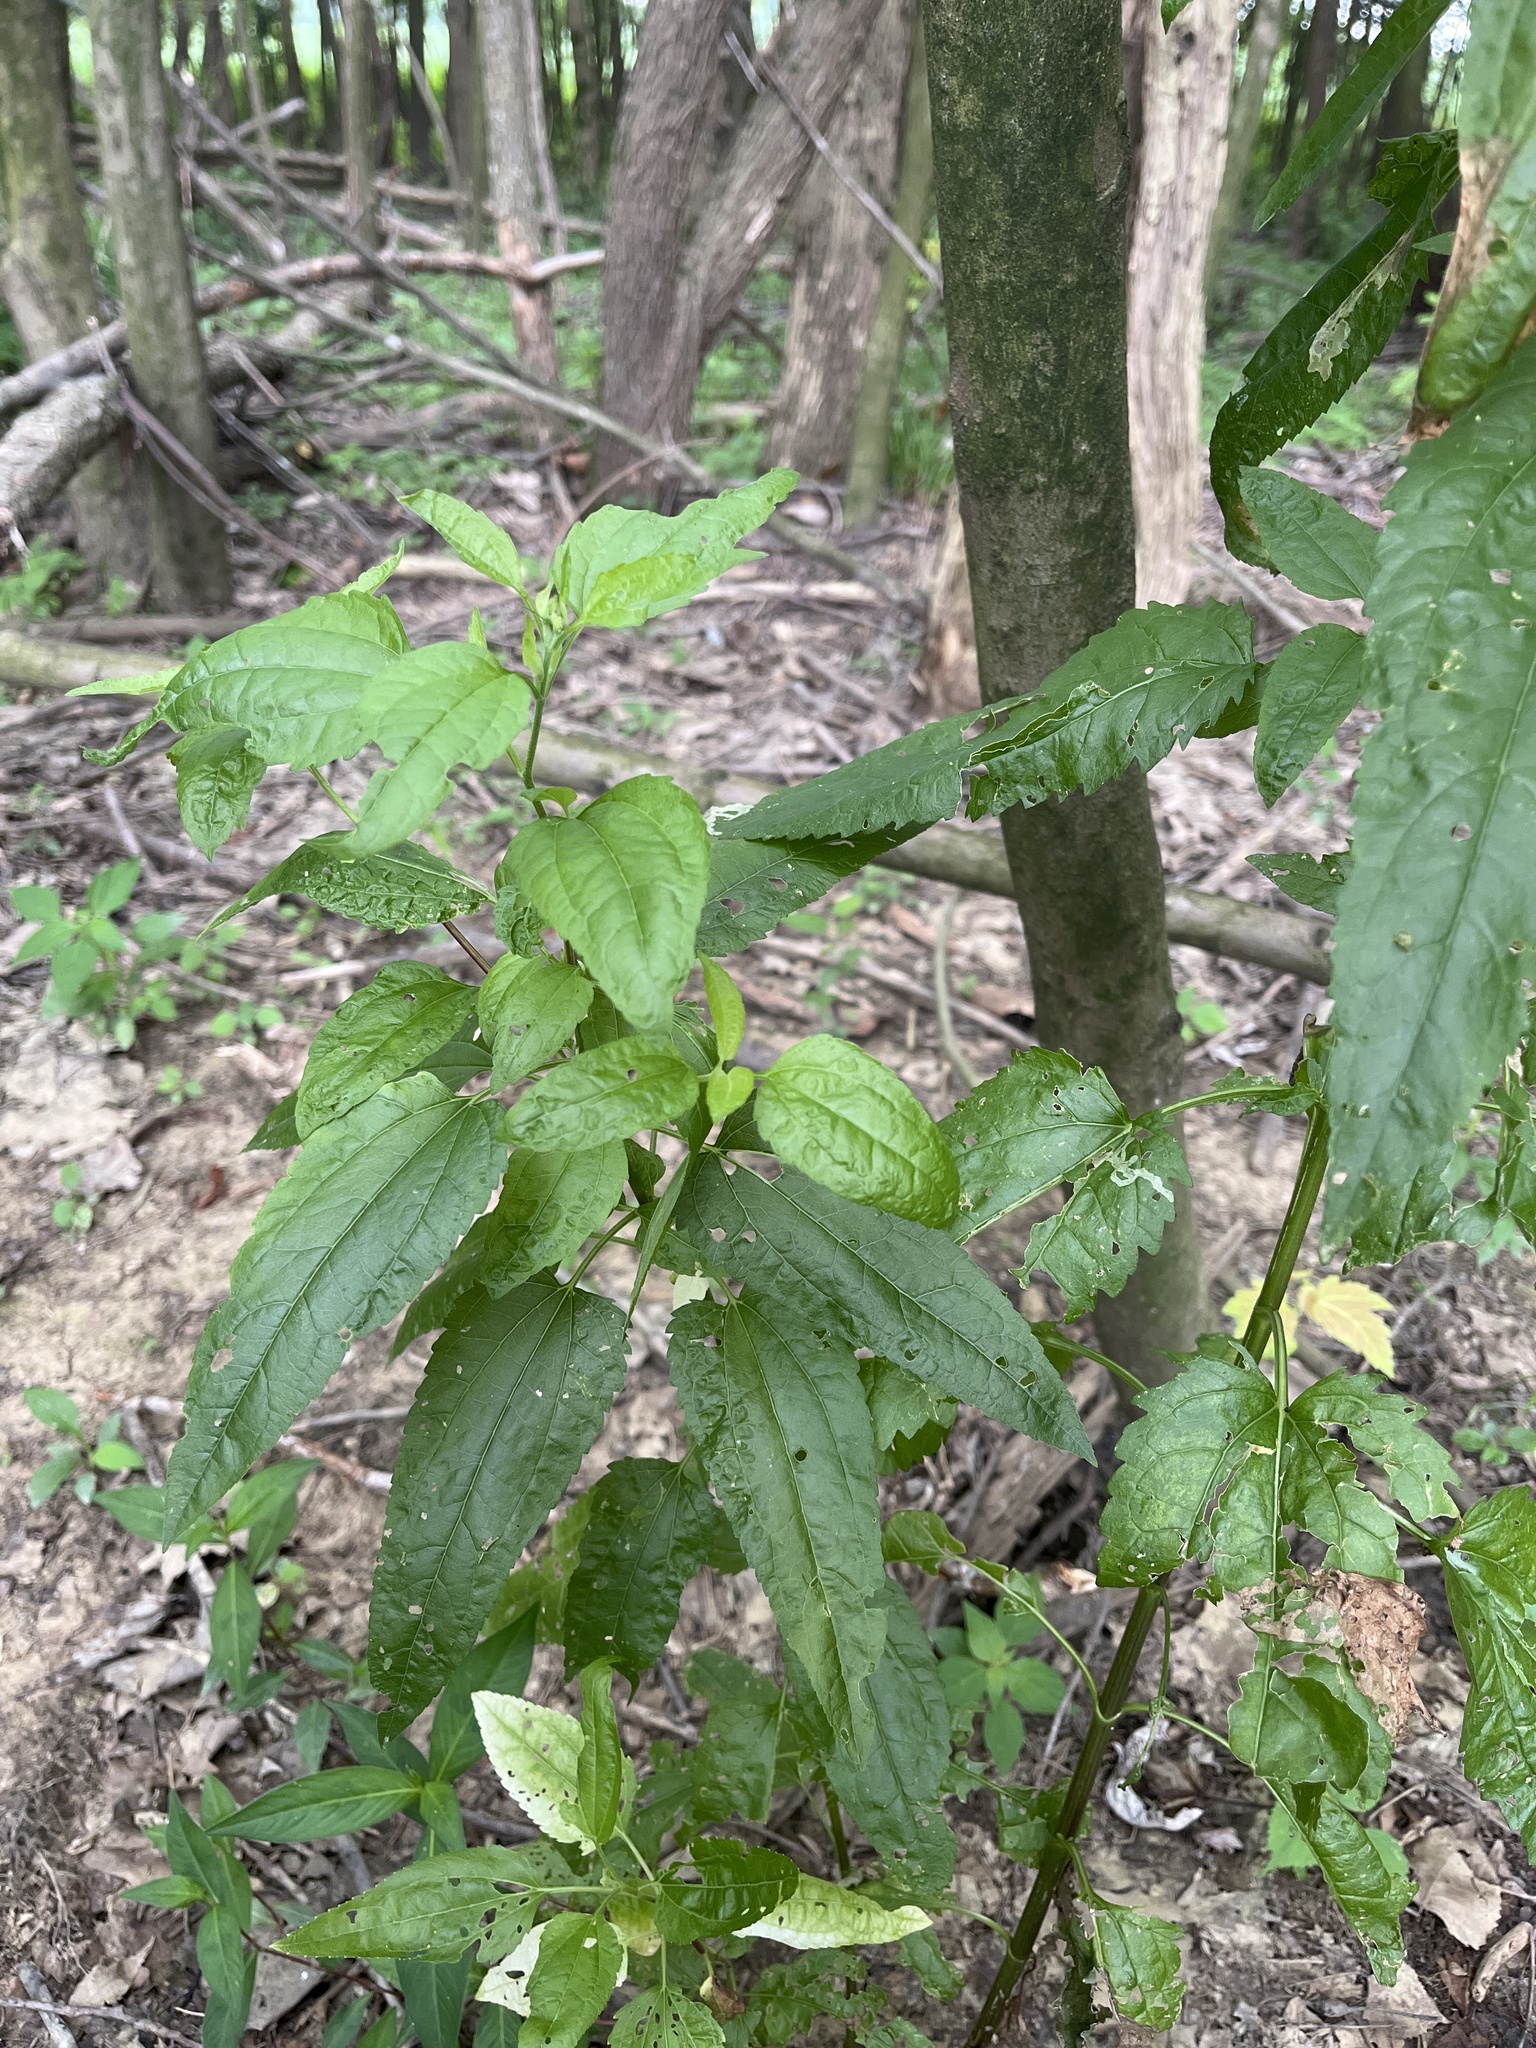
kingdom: Plantae
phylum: Tracheophyta
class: Magnoliopsida
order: Asterales
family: Asteraceae
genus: Eupatorium
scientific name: Eupatorium serotinum
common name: Late boneset
